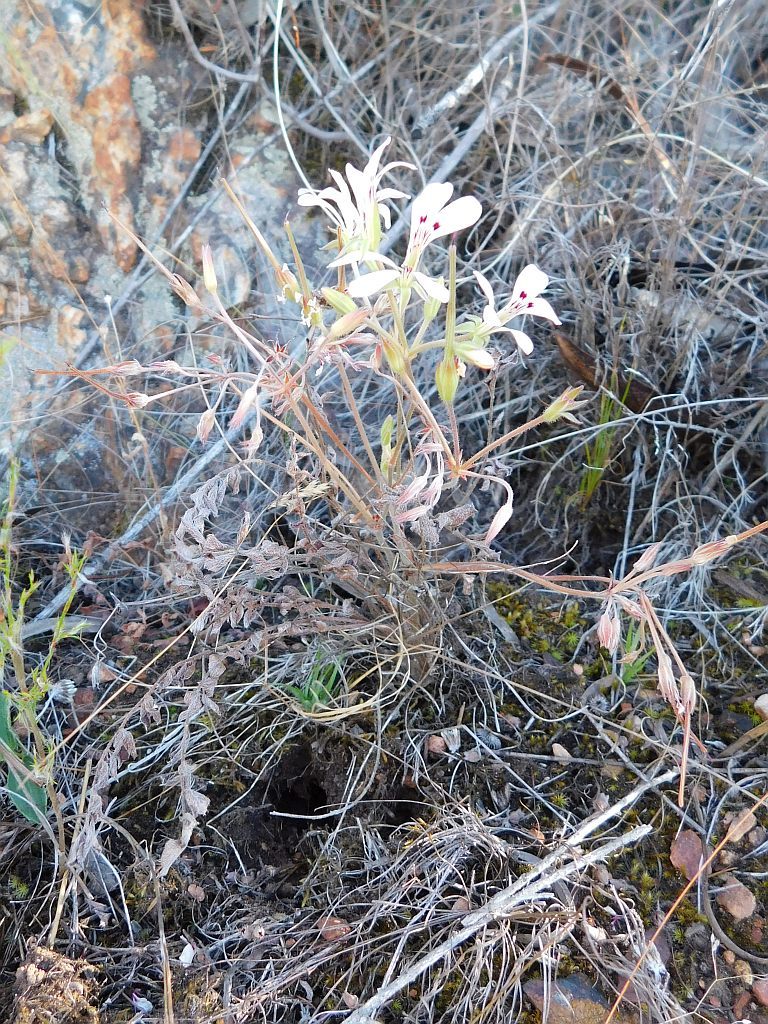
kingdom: Plantae
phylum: Tracheophyta
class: Magnoliopsida
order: Geraniales
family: Geraniaceae
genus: Pelargonium
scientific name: Pelargonium pinnatum
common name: Pinnated pelargonium
